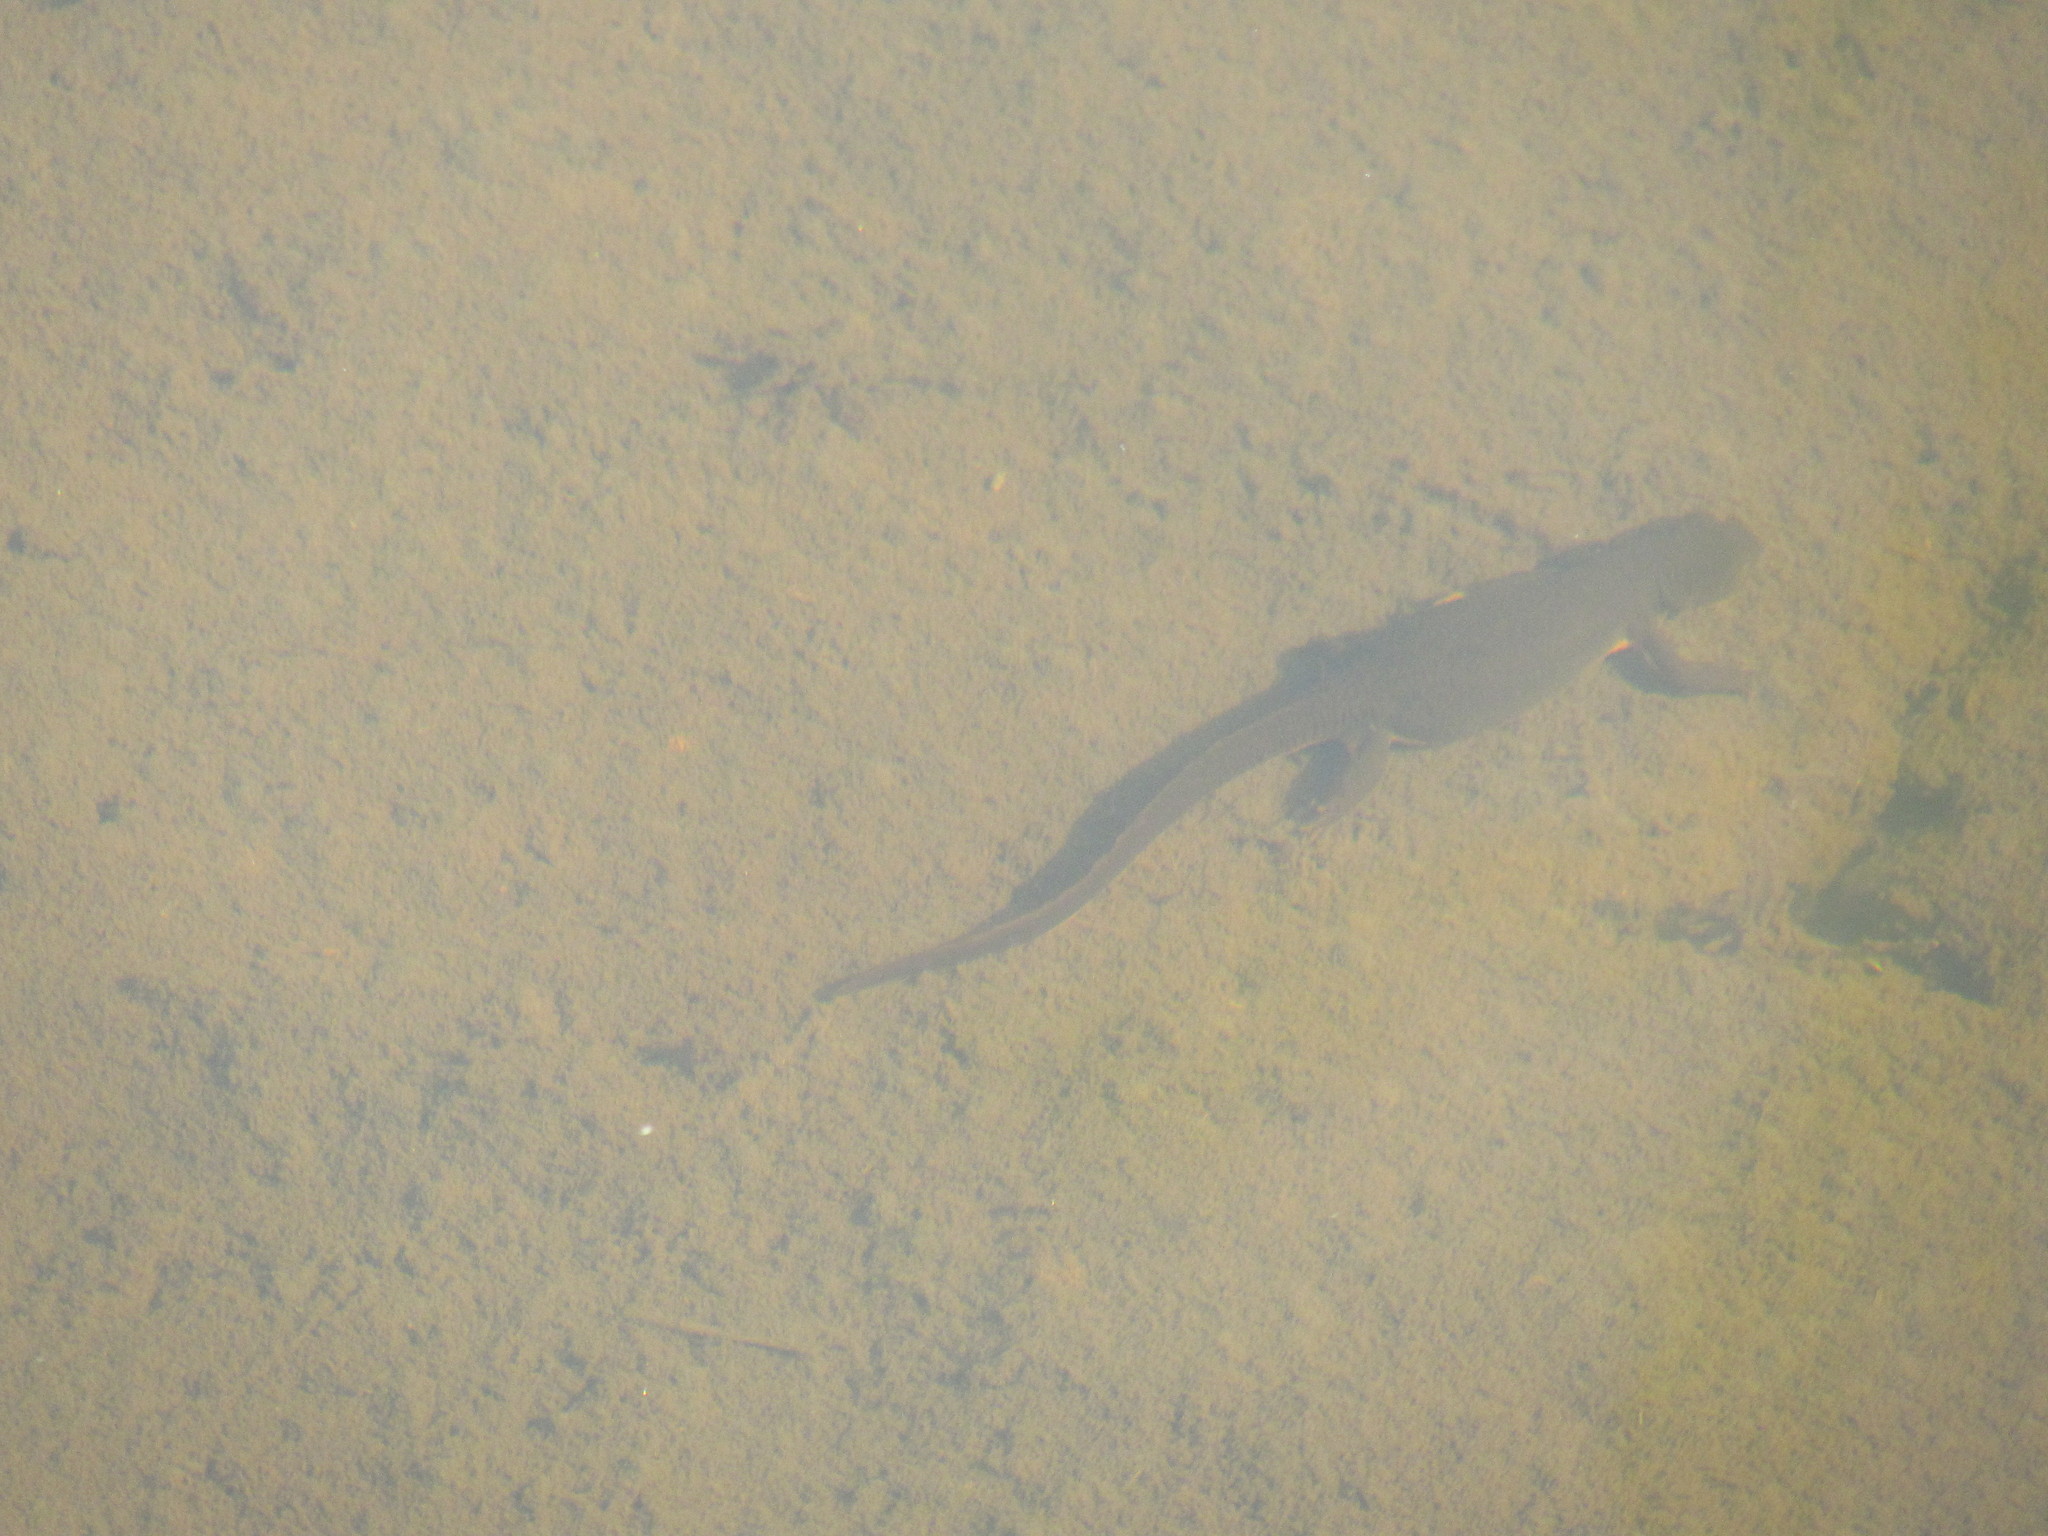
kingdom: Animalia
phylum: Chordata
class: Amphibia
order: Caudata
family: Salamandridae
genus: Taricha
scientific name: Taricha granulosa
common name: Roughskin newt
